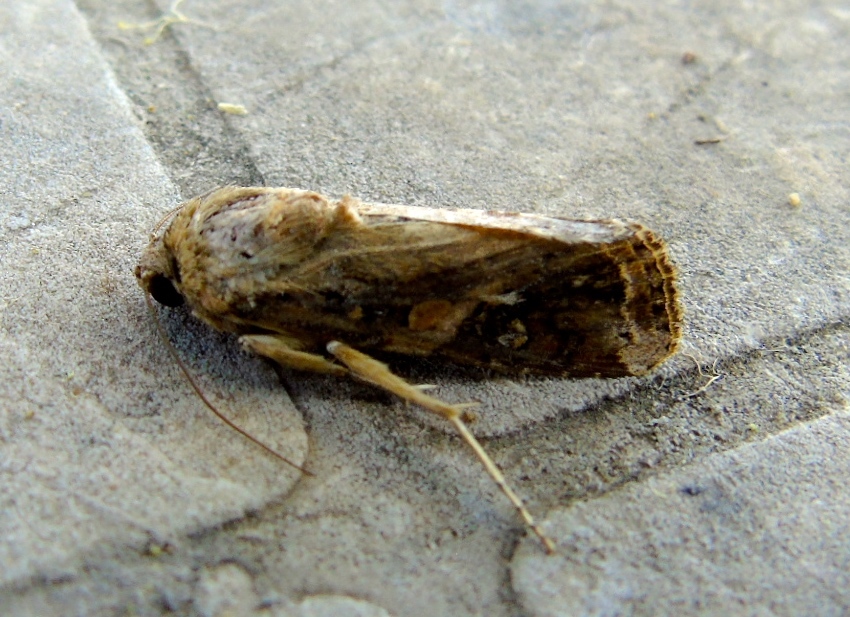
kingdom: Animalia
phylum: Arthropoda
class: Insecta
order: Lepidoptera
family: Noctuidae
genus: Magusa
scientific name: Magusa divaricata
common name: Orb narrow-winged moth
